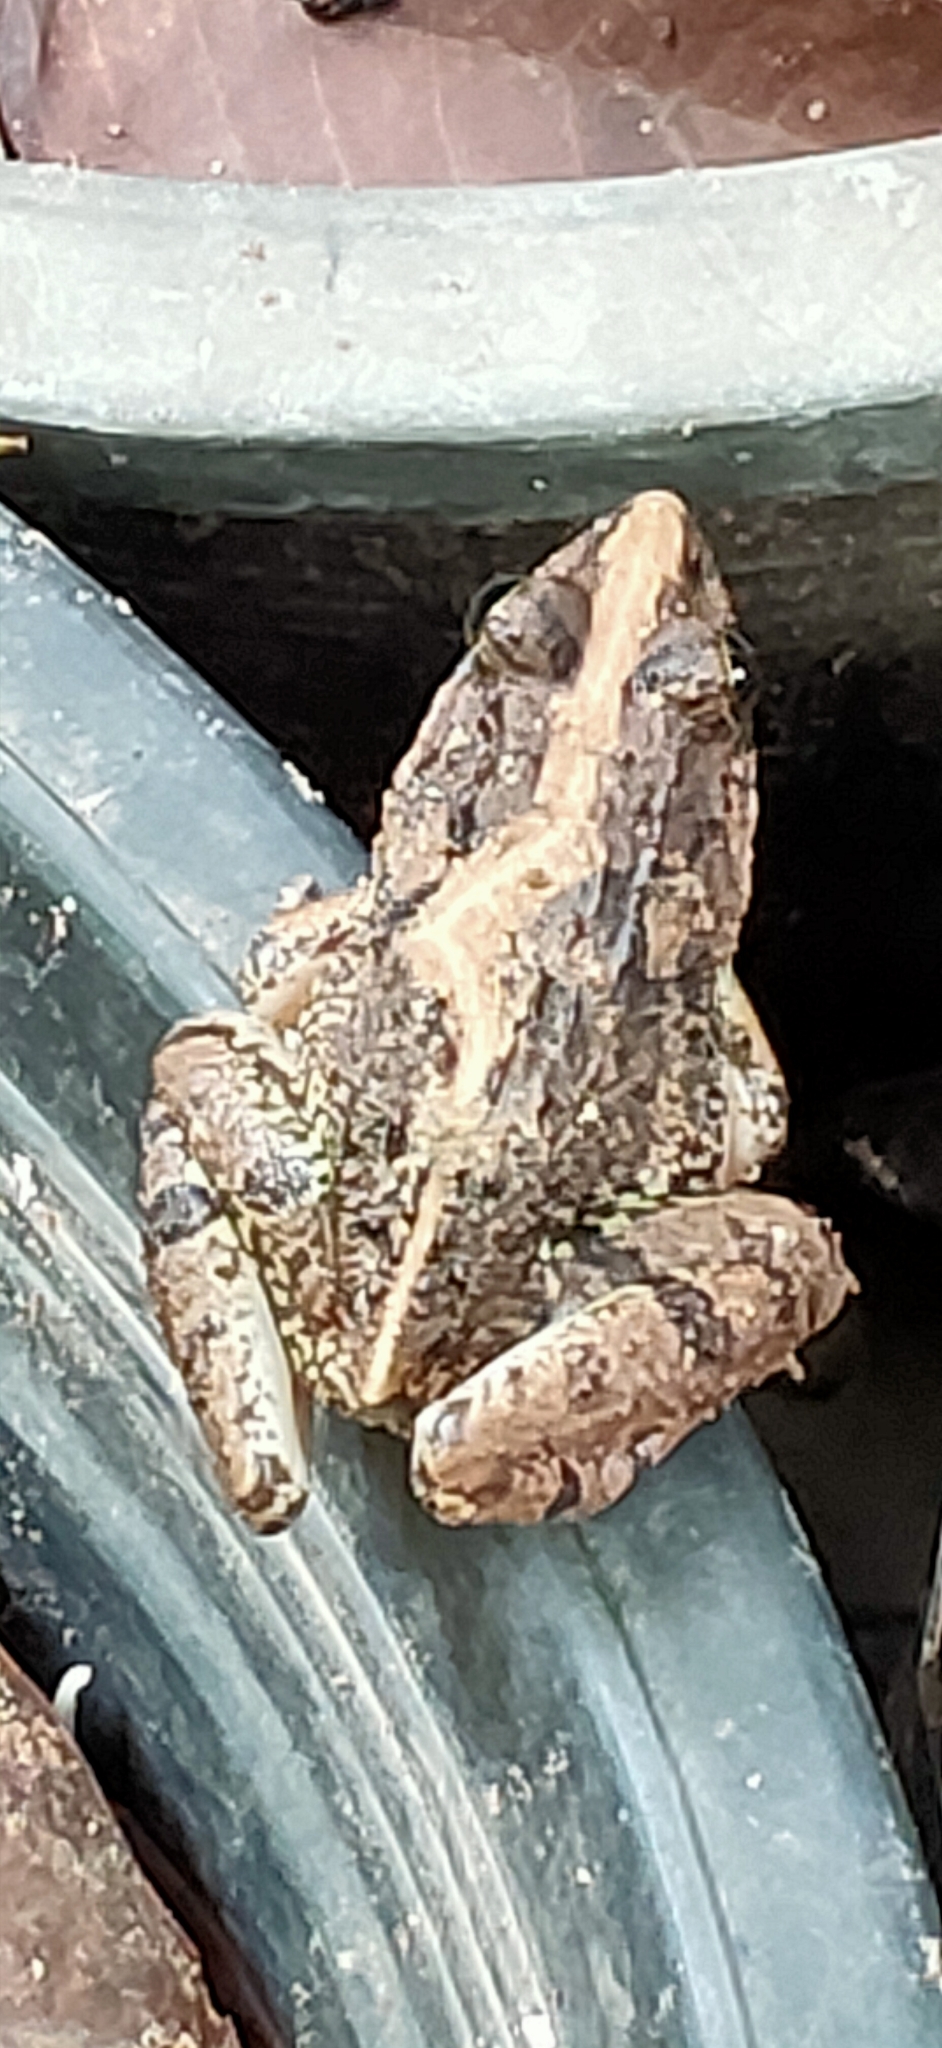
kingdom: Animalia
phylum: Chordata
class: Amphibia
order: Anura
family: Dicroglossidae
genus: Fejervarya
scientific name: Fejervarya limnocharis
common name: Asian grass frog/common pond frog/field frog/grass frog/indian rice frog
